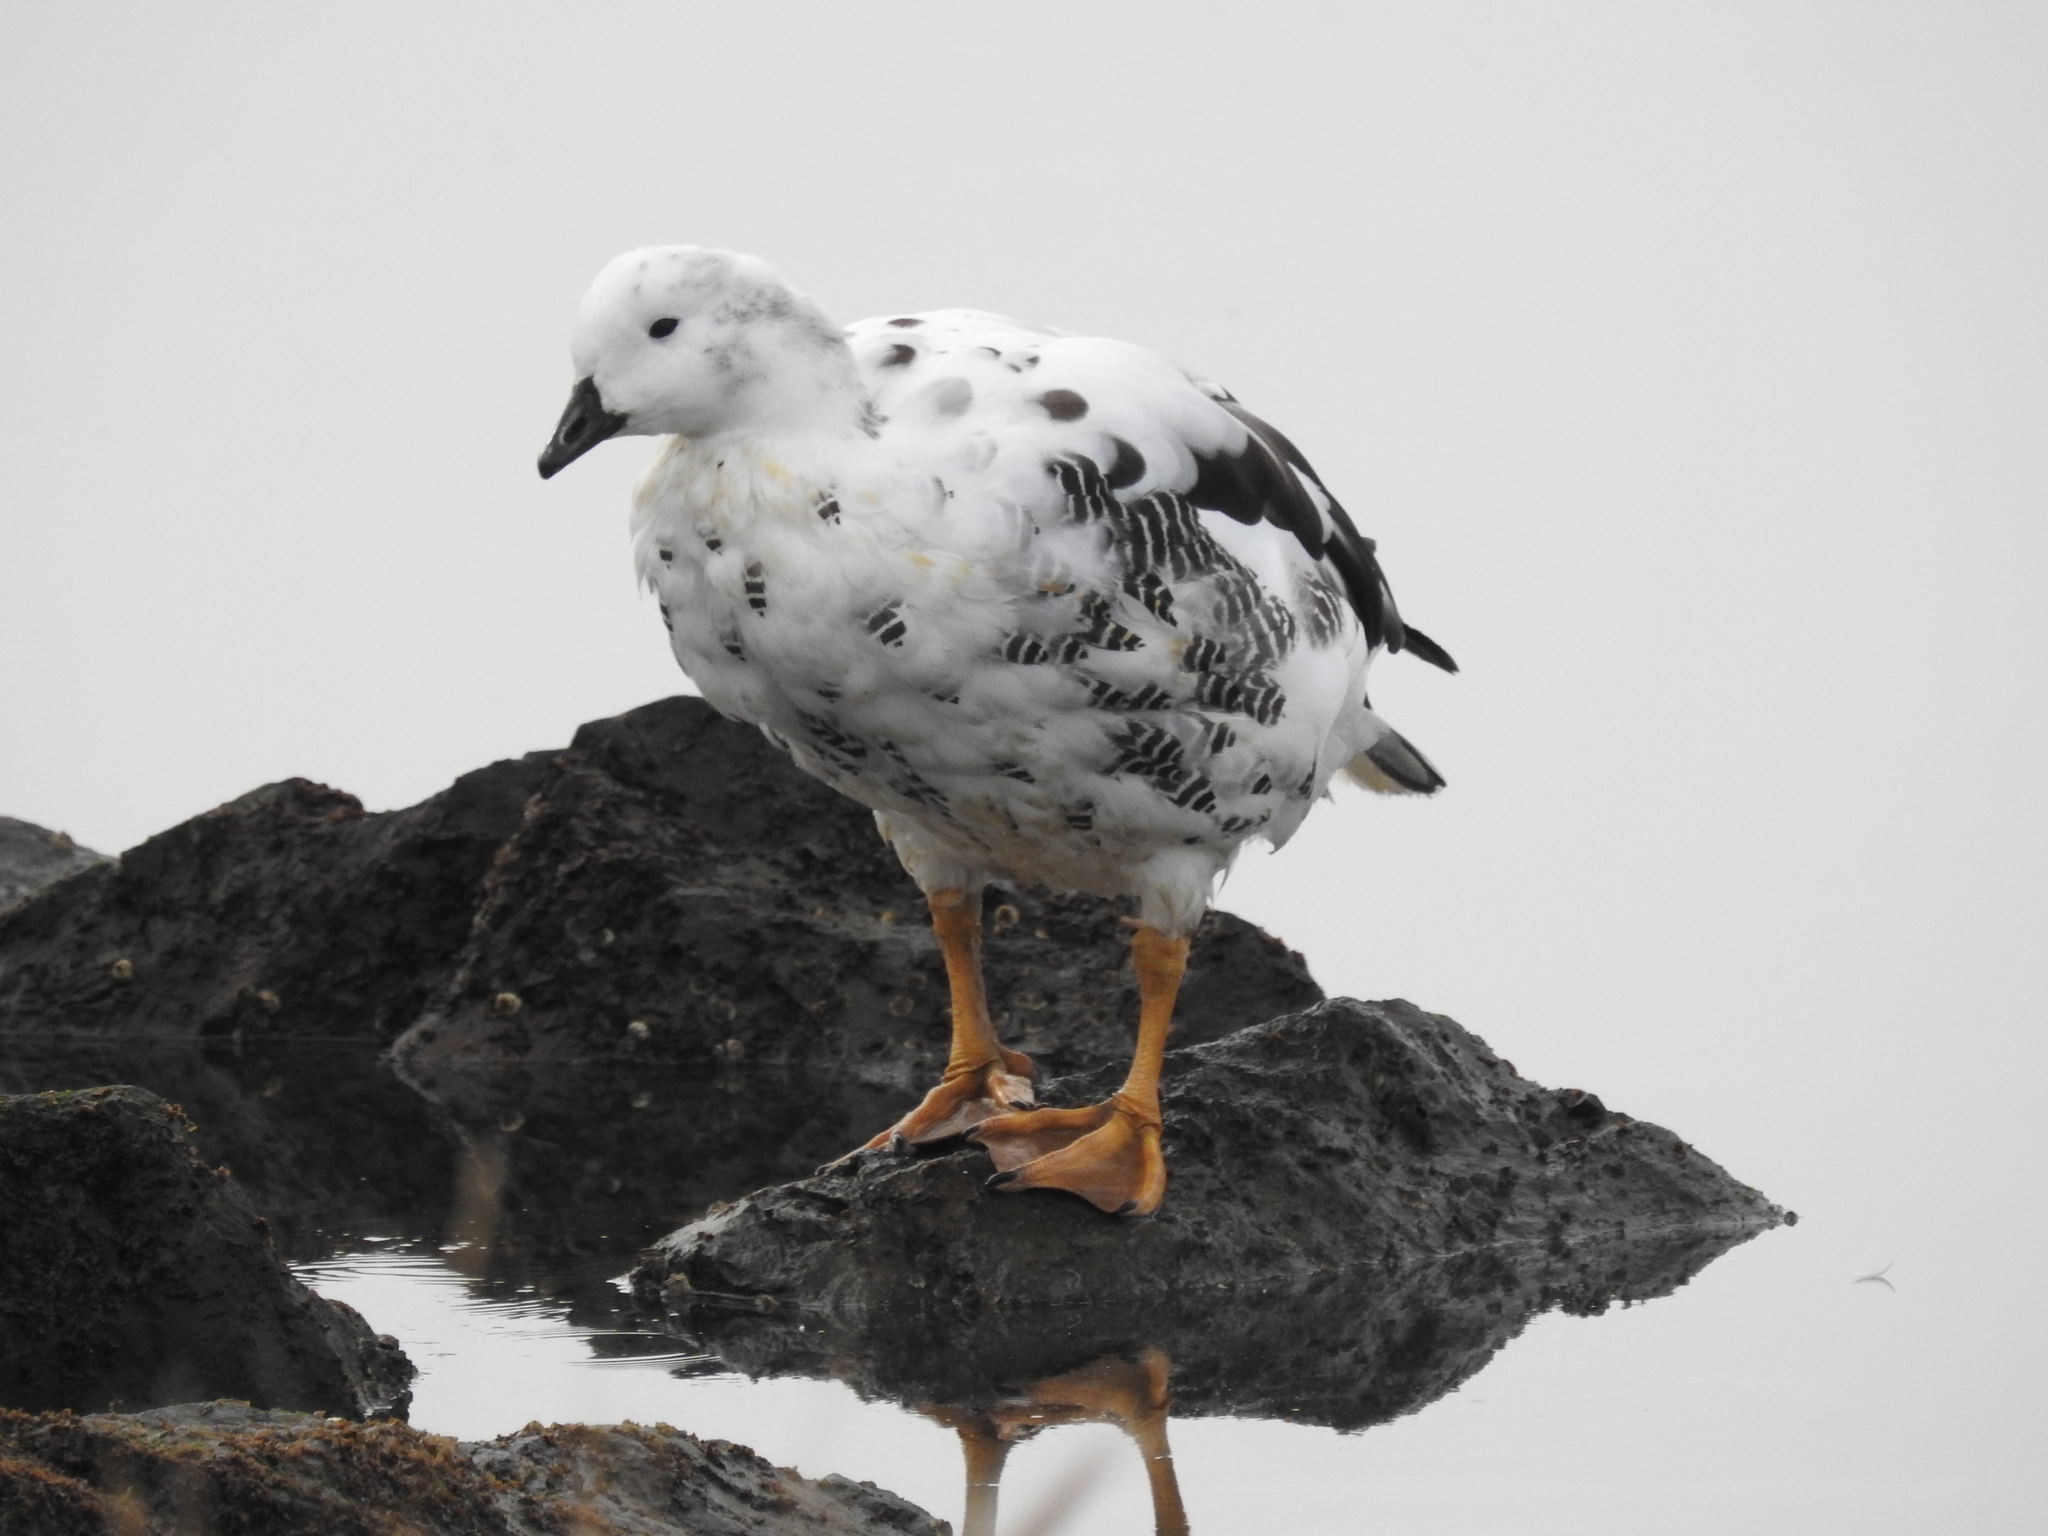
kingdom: Animalia
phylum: Chordata
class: Aves
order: Anseriformes
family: Anatidae
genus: Chloephaga
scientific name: Chloephaga hybrida
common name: Kelp goose
